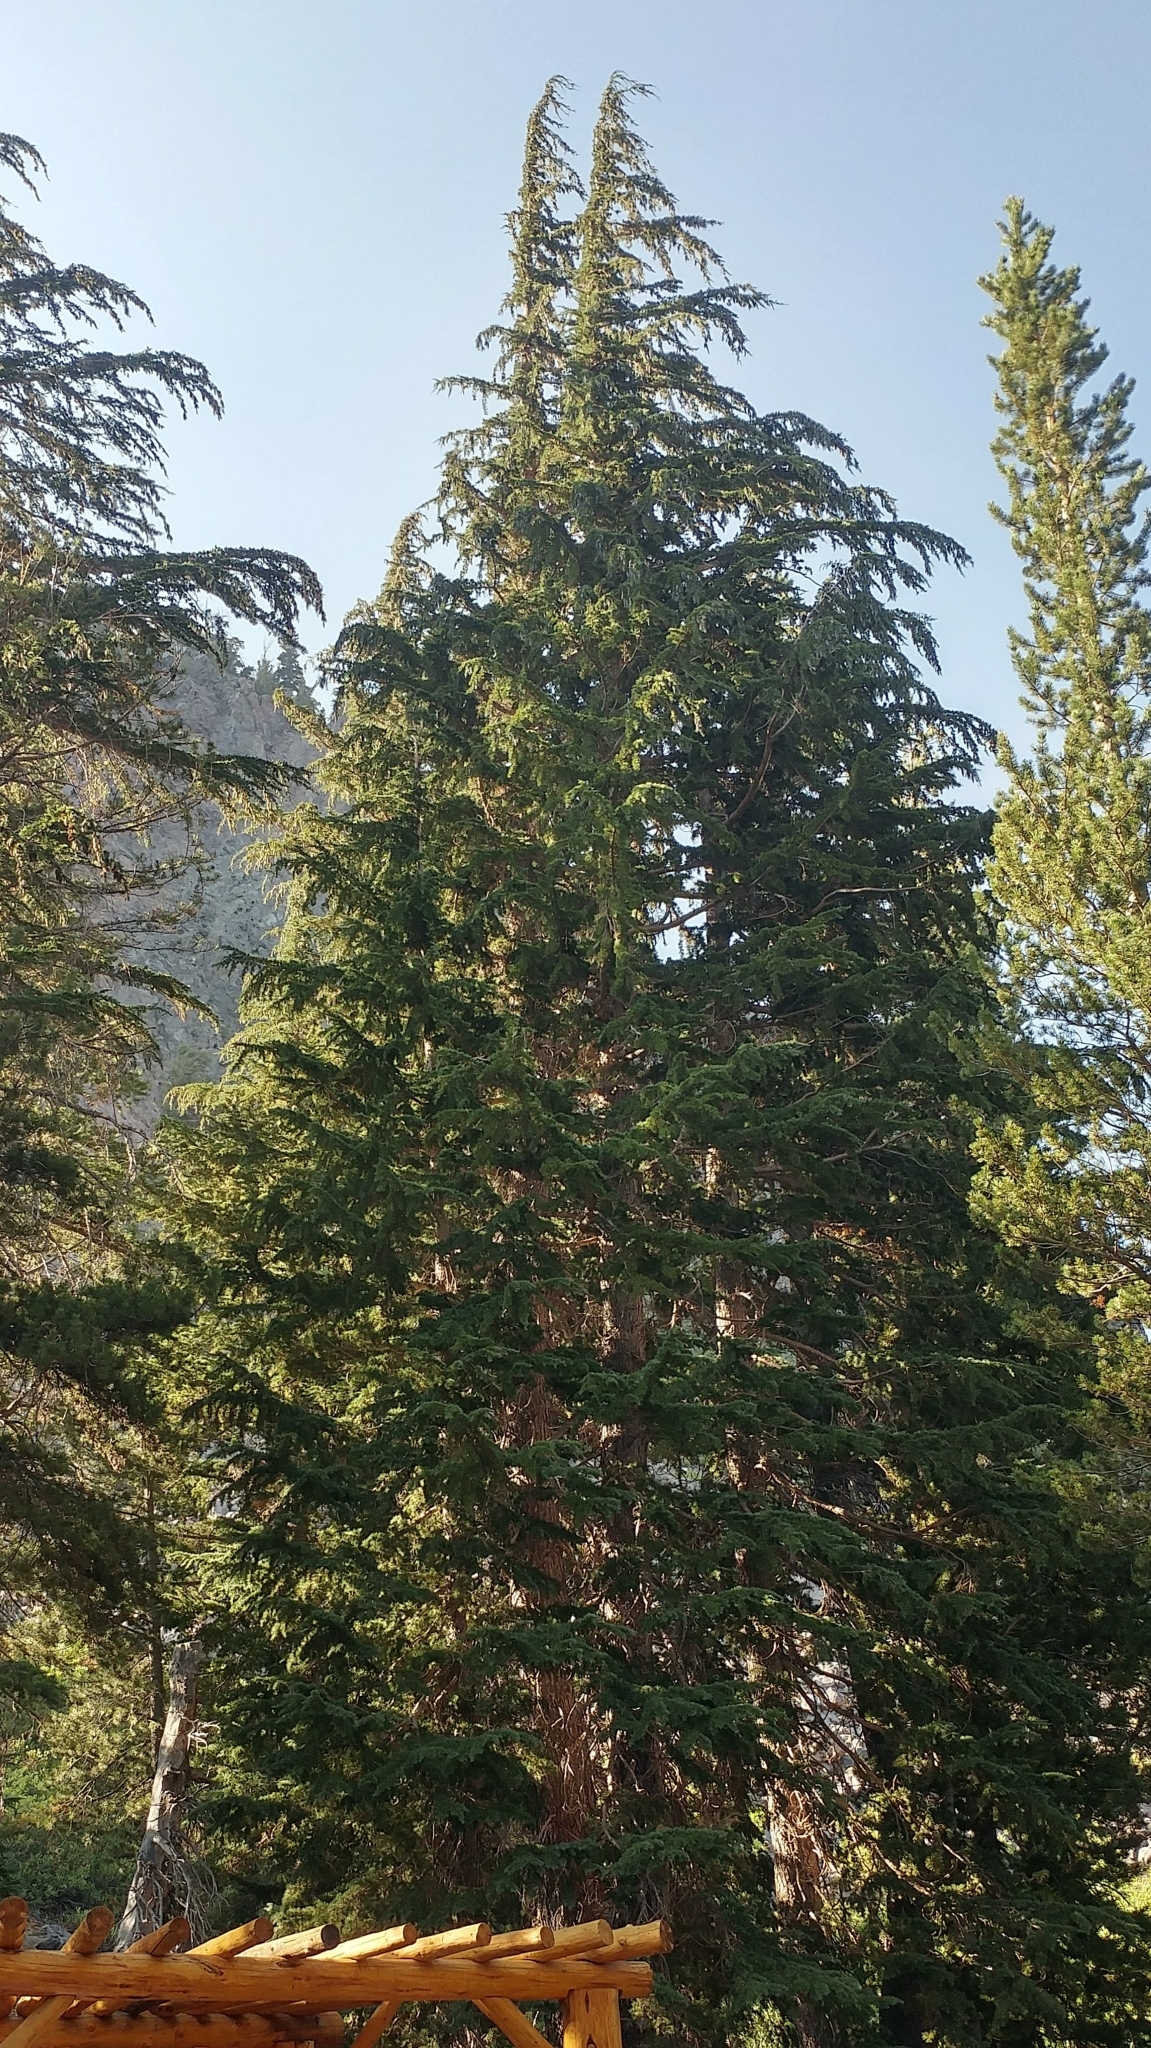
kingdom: Plantae
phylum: Tracheophyta
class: Pinopsida
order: Pinales
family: Pinaceae
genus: Tsuga
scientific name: Tsuga mertensiana
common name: Mountain hemlock
